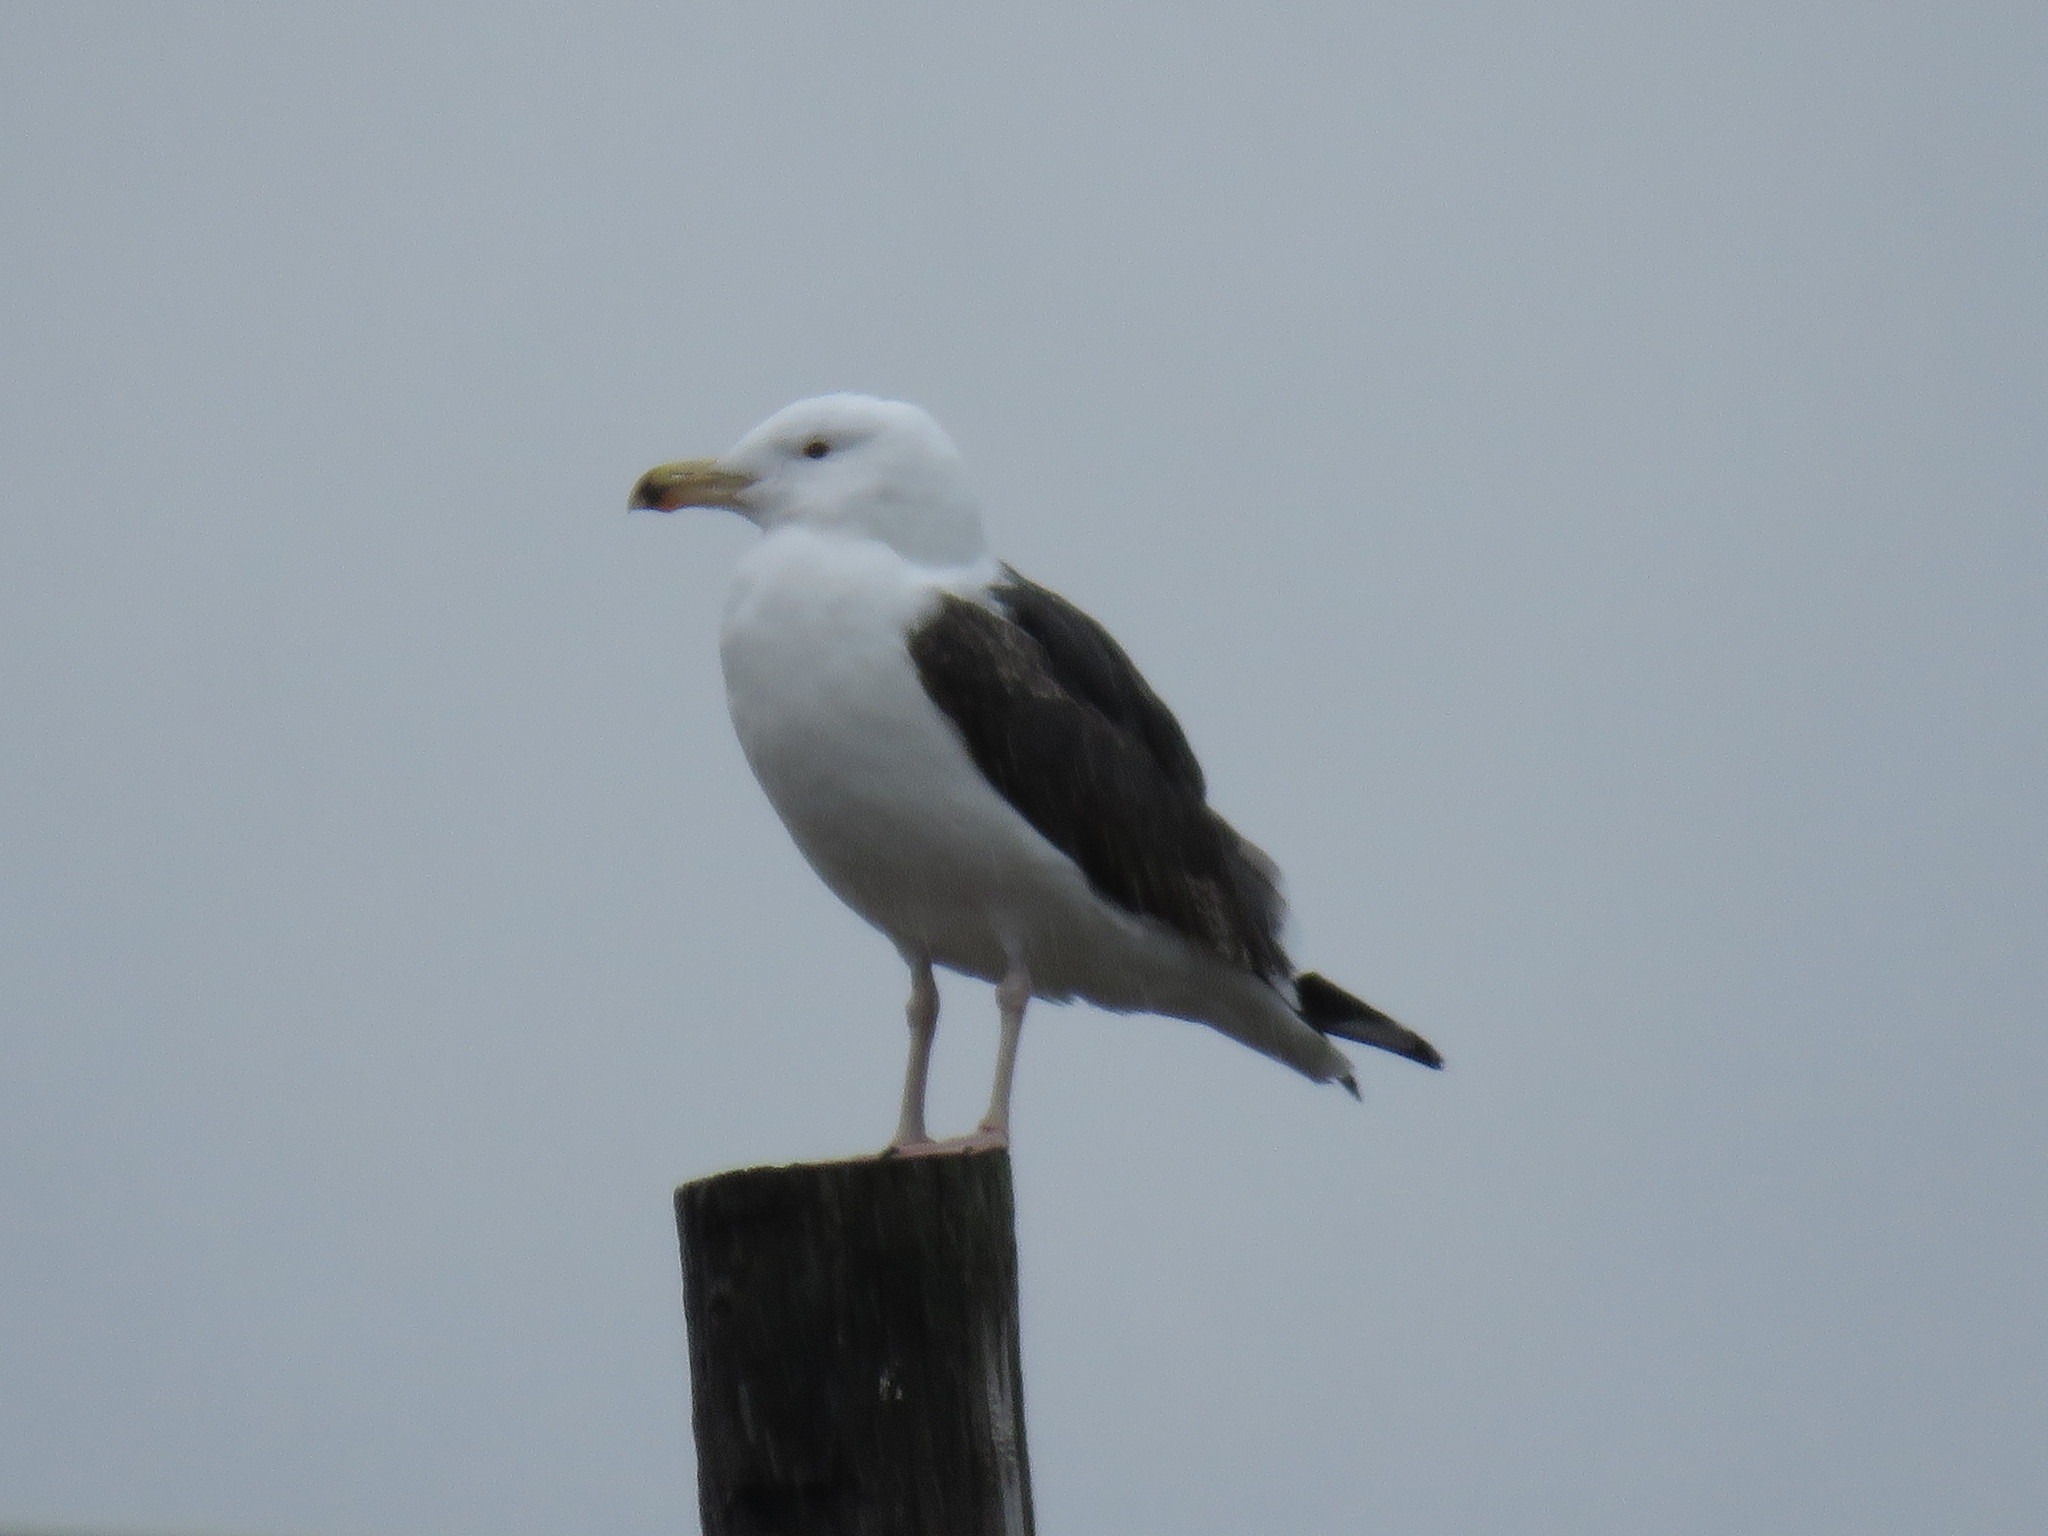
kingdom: Animalia
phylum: Chordata
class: Aves
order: Charadriiformes
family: Laridae
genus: Larus
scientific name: Larus marinus
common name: Great black-backed gull
